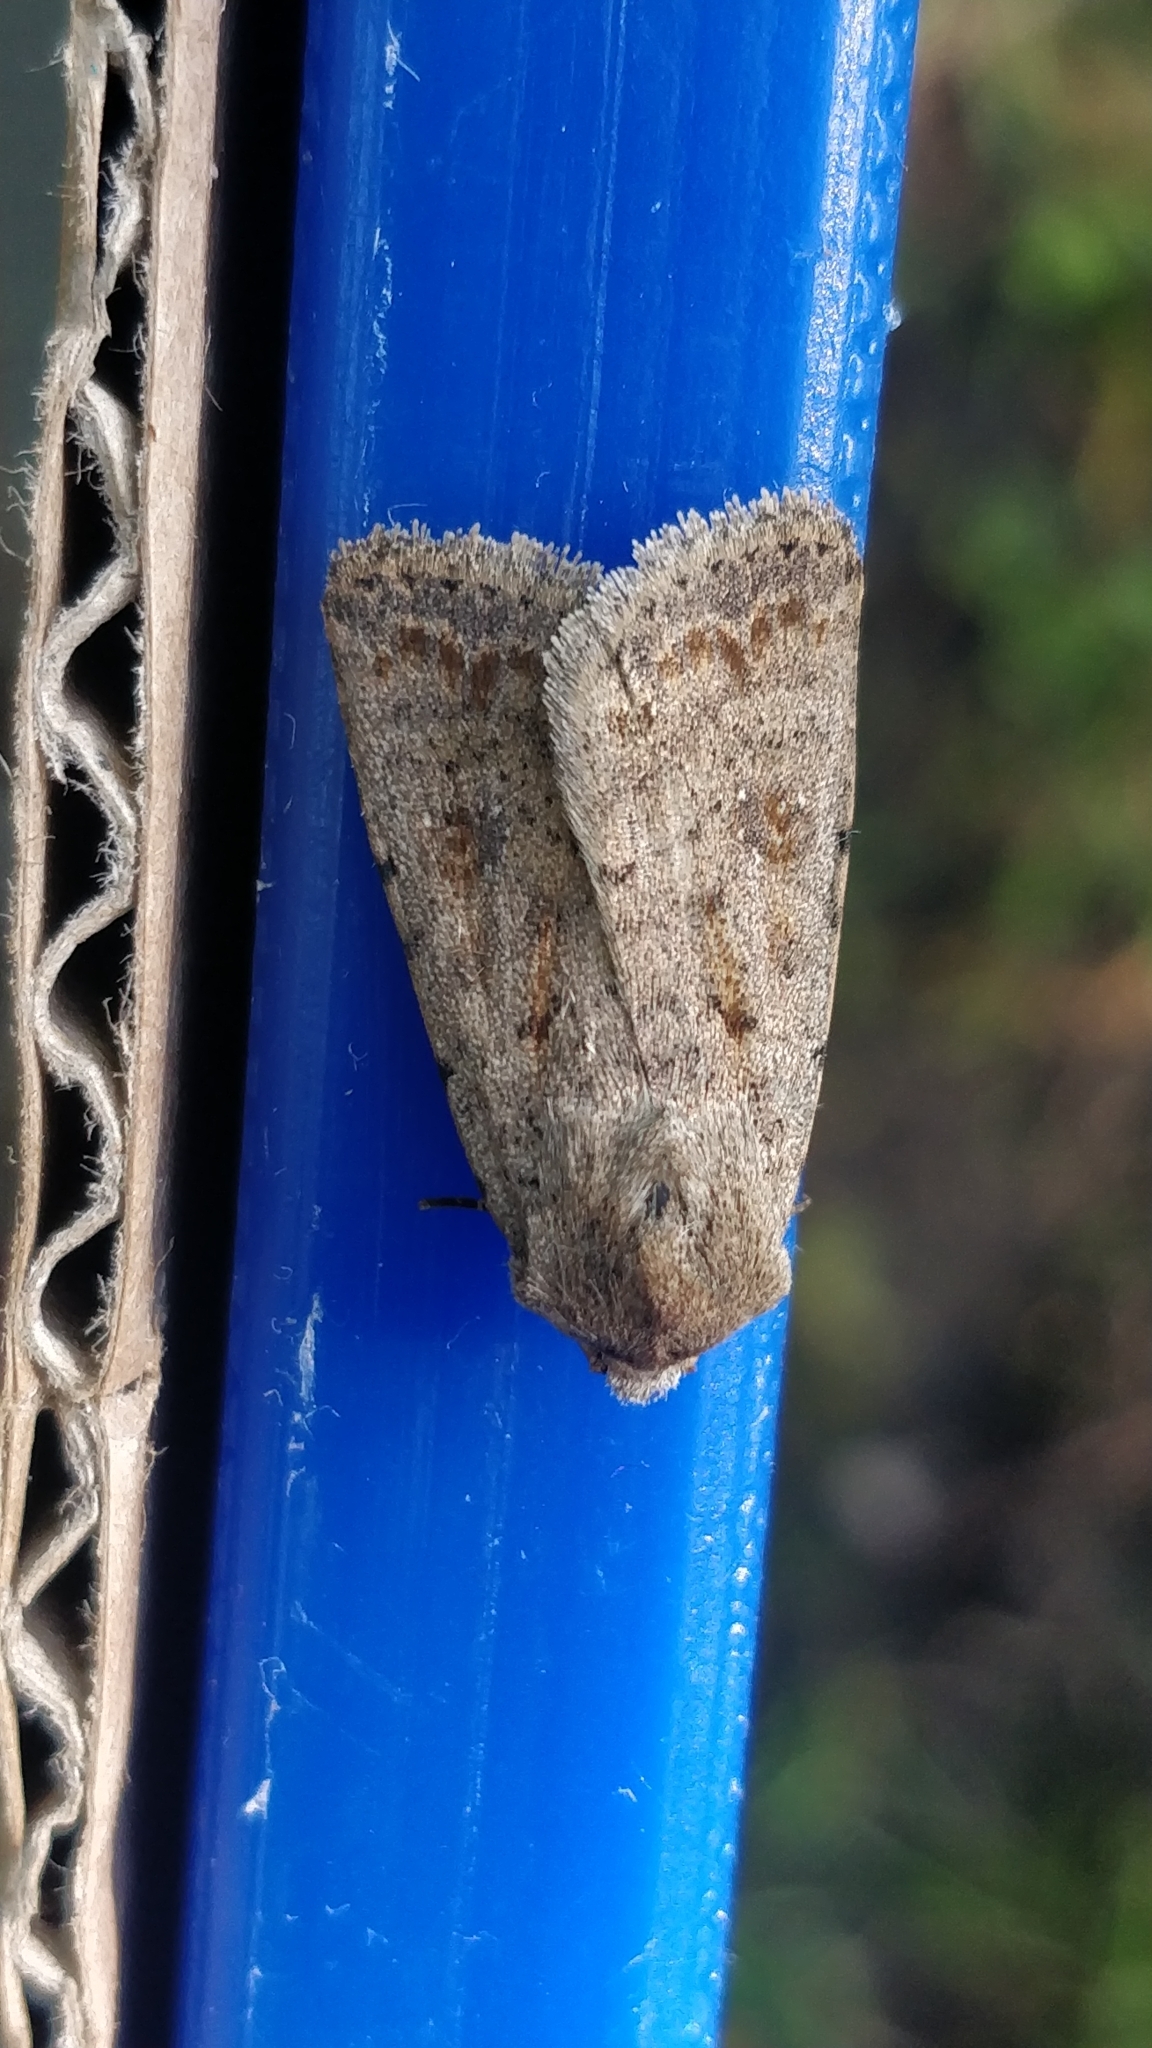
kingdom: Animalia
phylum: Arthropoda
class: Insecta
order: Lepidoptera
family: Noctuidae
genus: Caradrina
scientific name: Caradrina clavipalpis
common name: Pale mottled willow
